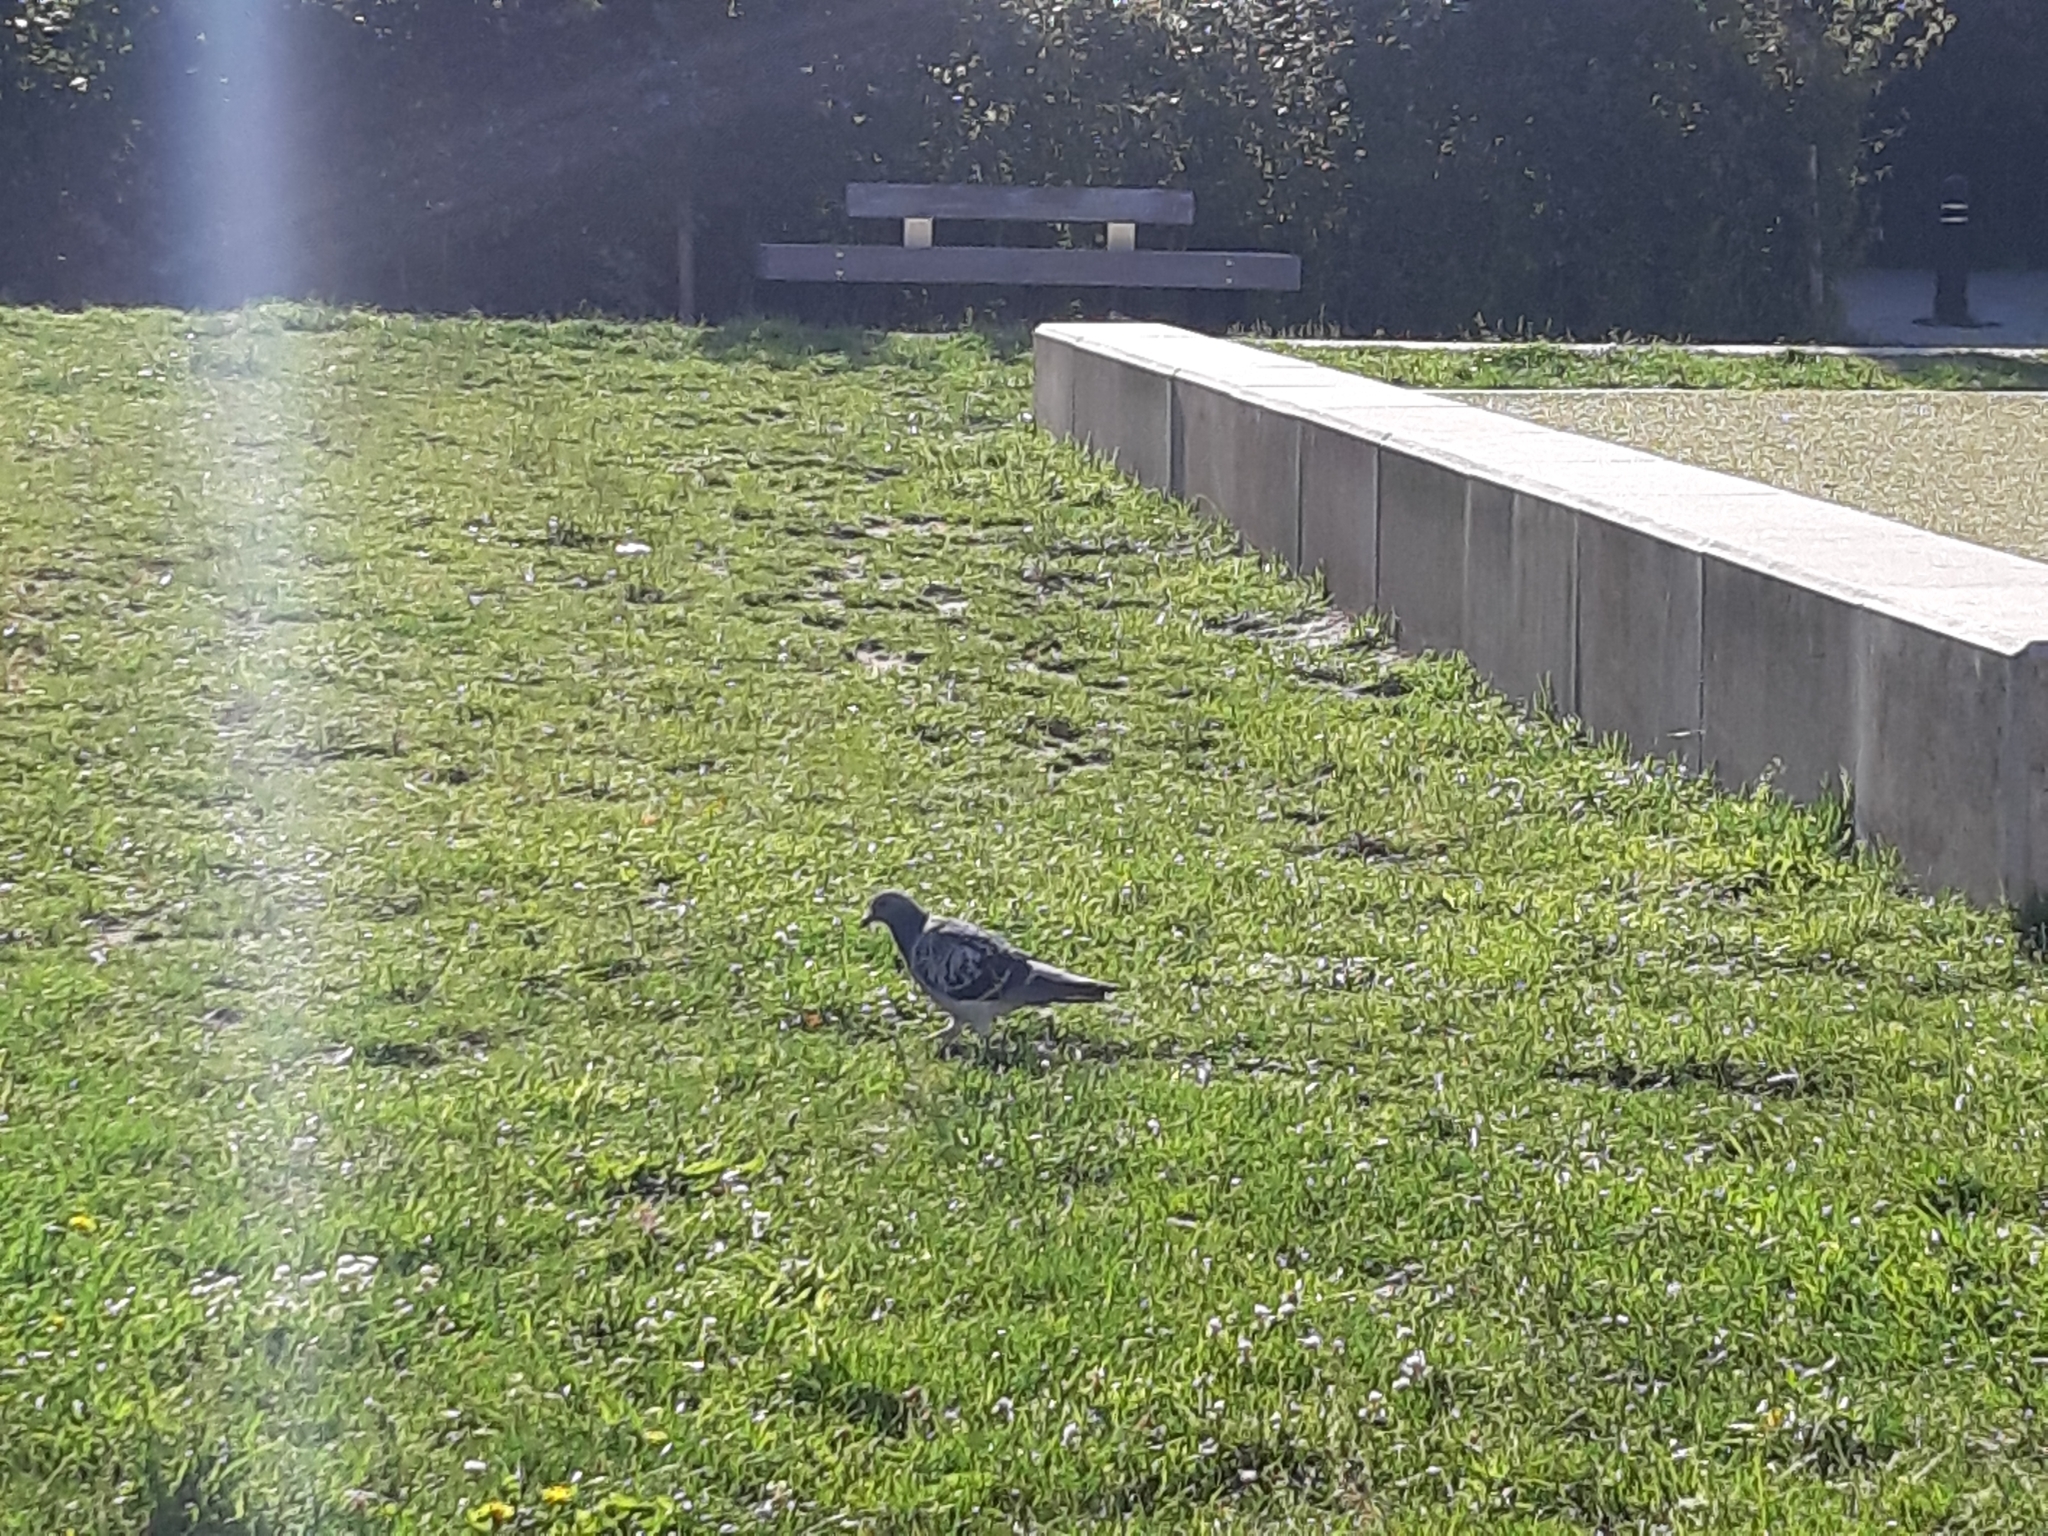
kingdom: Animalia
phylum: Chordata
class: Aves
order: Columbiformes
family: Columbidae
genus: Columba
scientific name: Columba livia
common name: Rock pigeon
